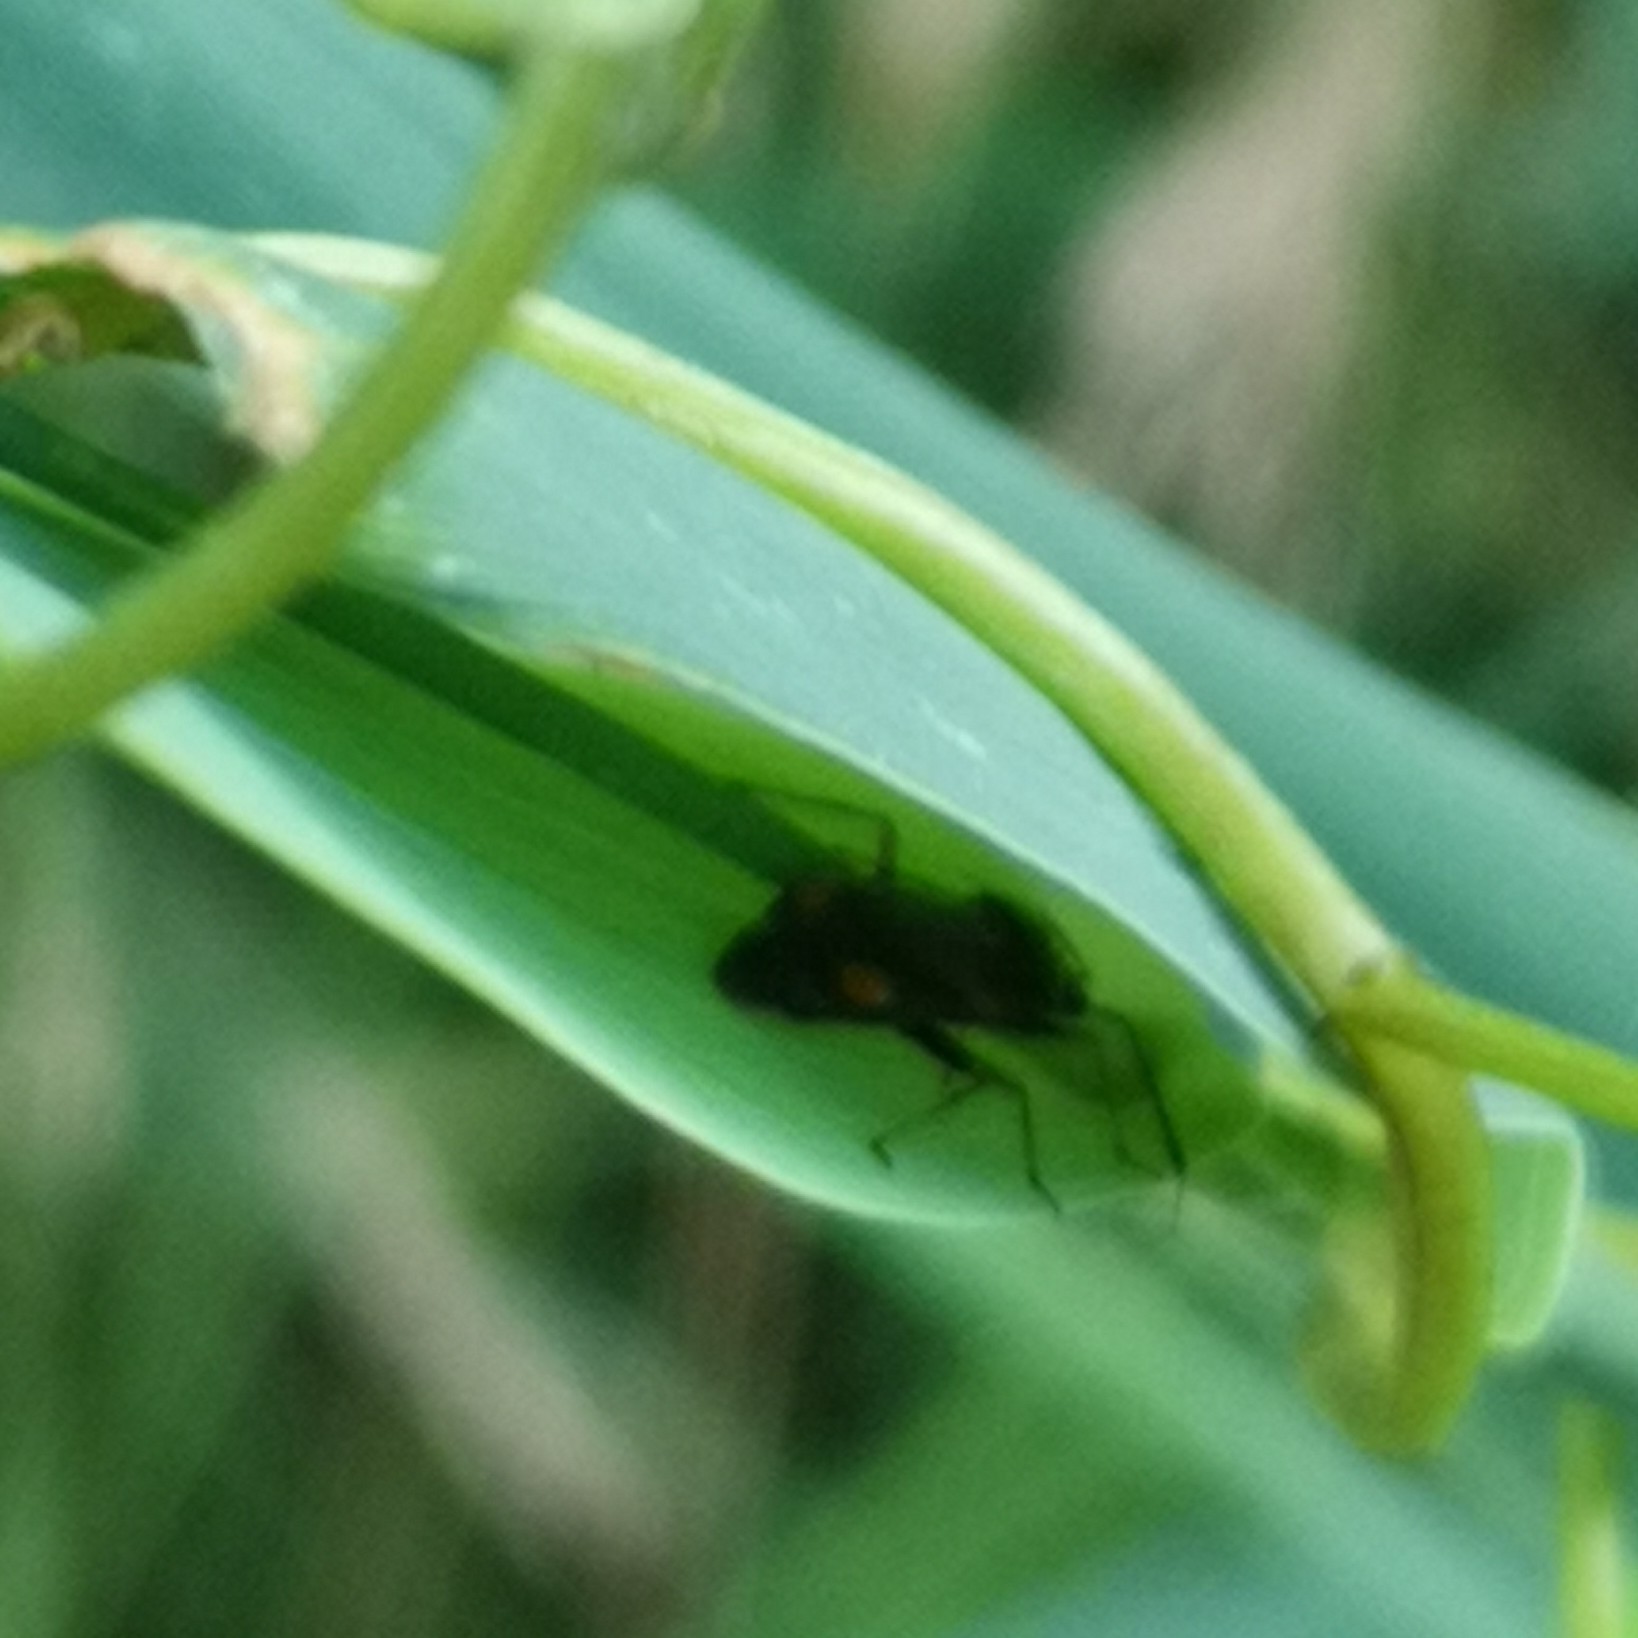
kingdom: Animalia
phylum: Arthropoda
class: Insecta
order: Hemiptera
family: Miridae
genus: Deraeocoris
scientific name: Deraeocoris ruber
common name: Plant bug
